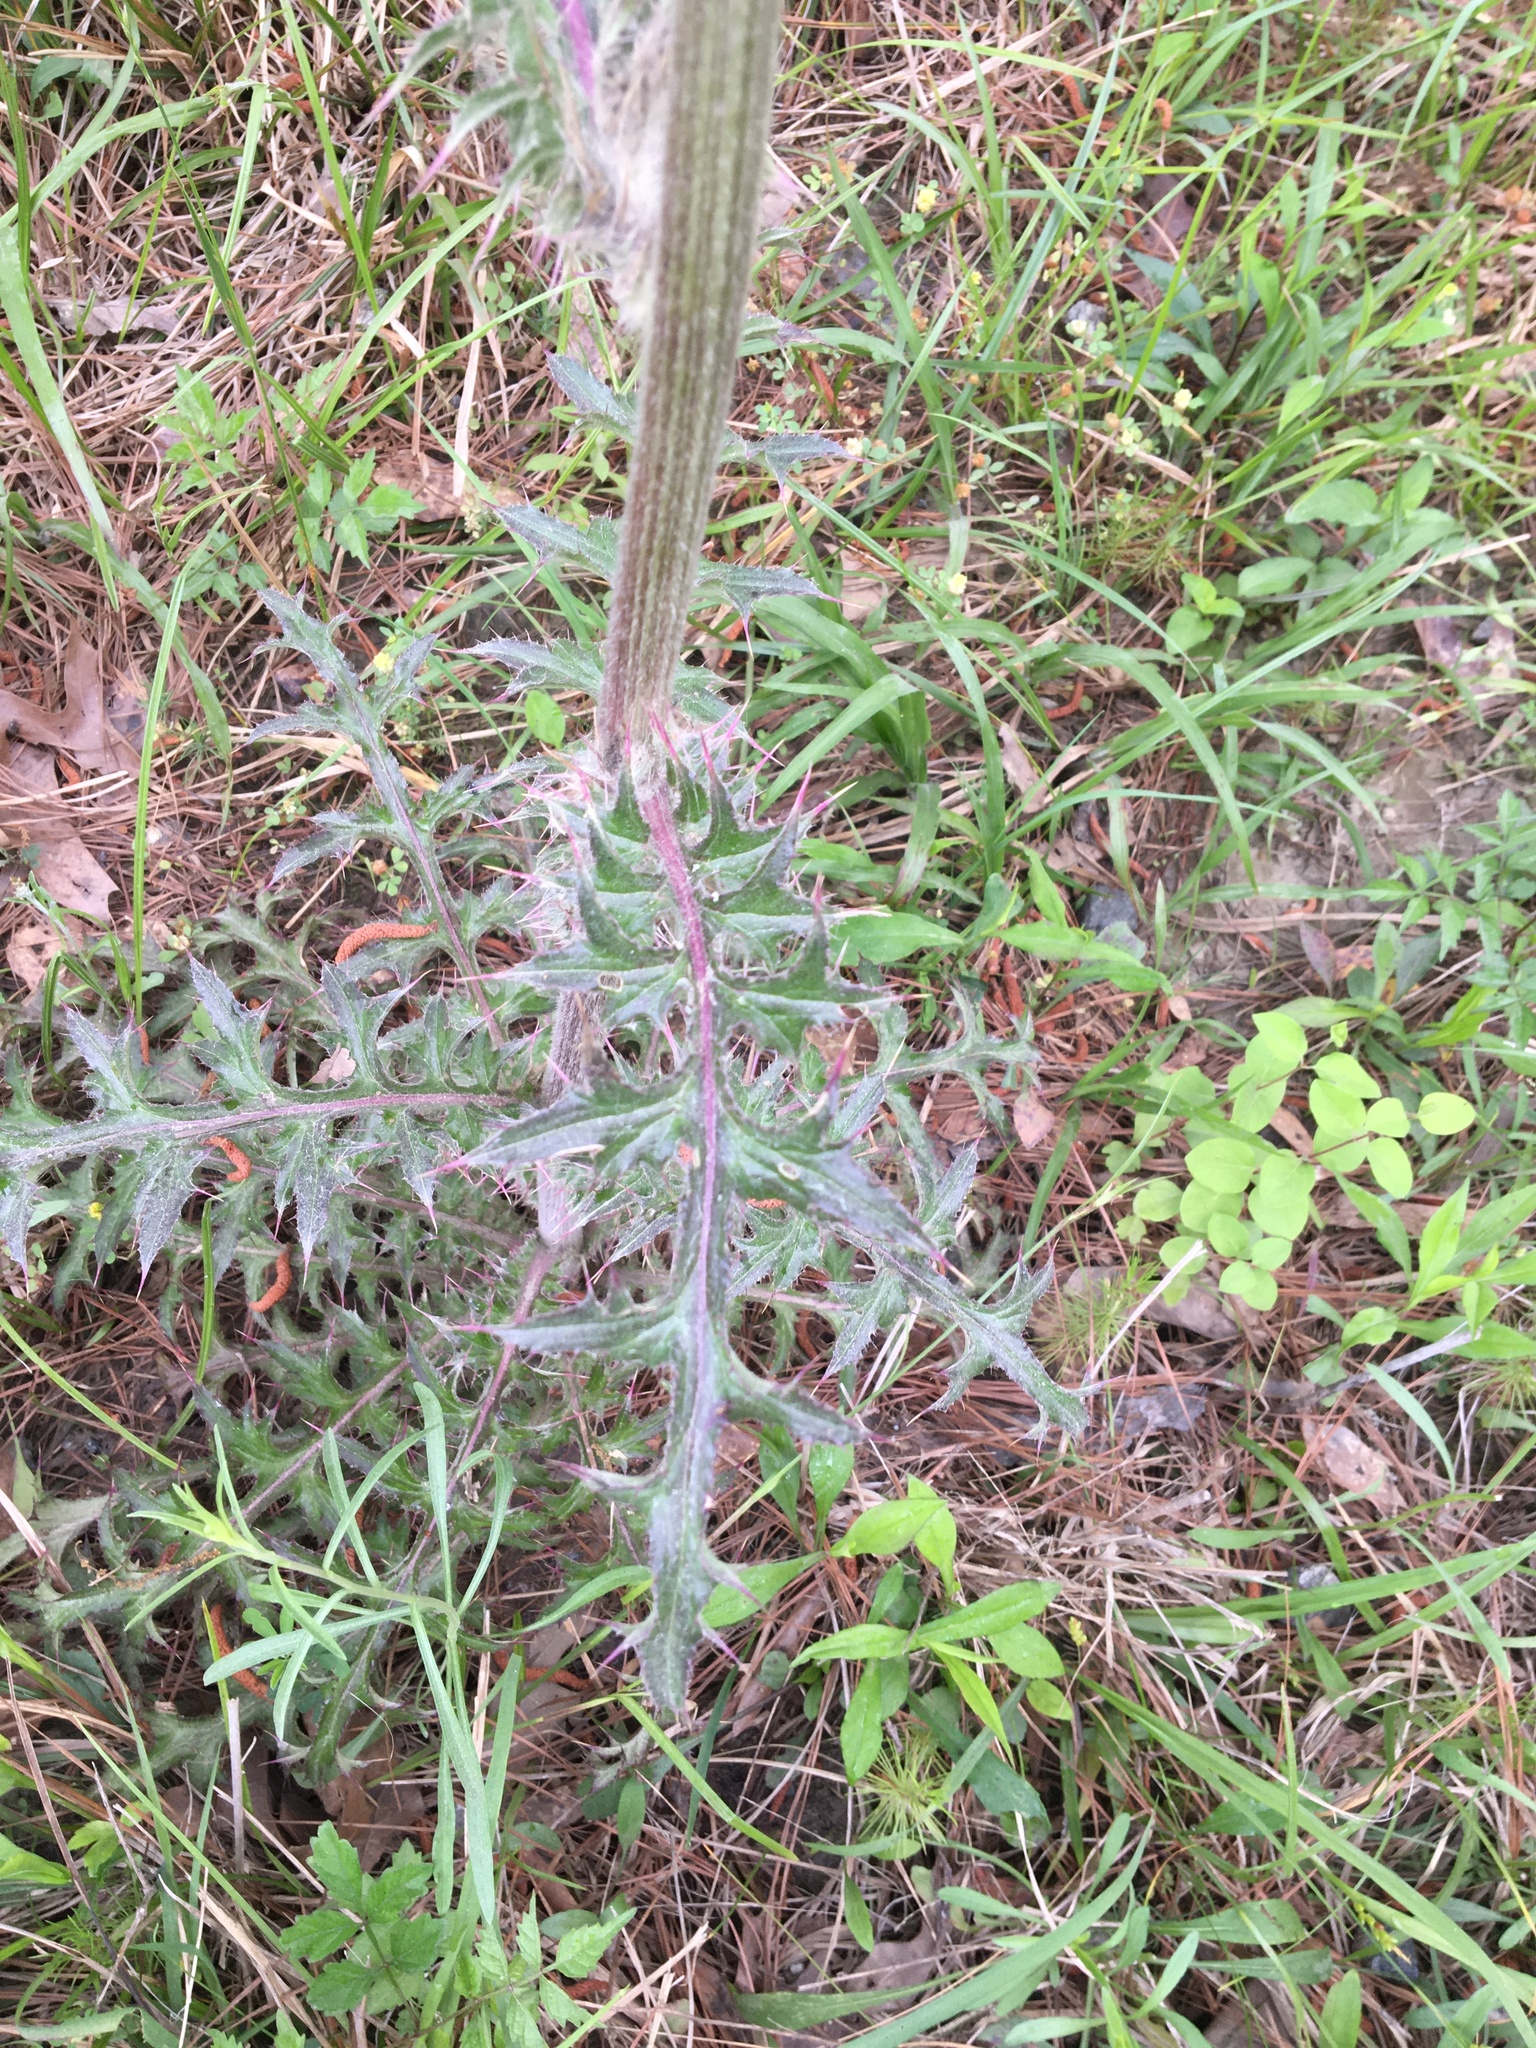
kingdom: Plantae
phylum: Tracheophyta
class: Magnoliopsida
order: Asterales
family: Asteraceae
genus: Cirsium
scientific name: Cirsium horridulum
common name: Bristly thistle
